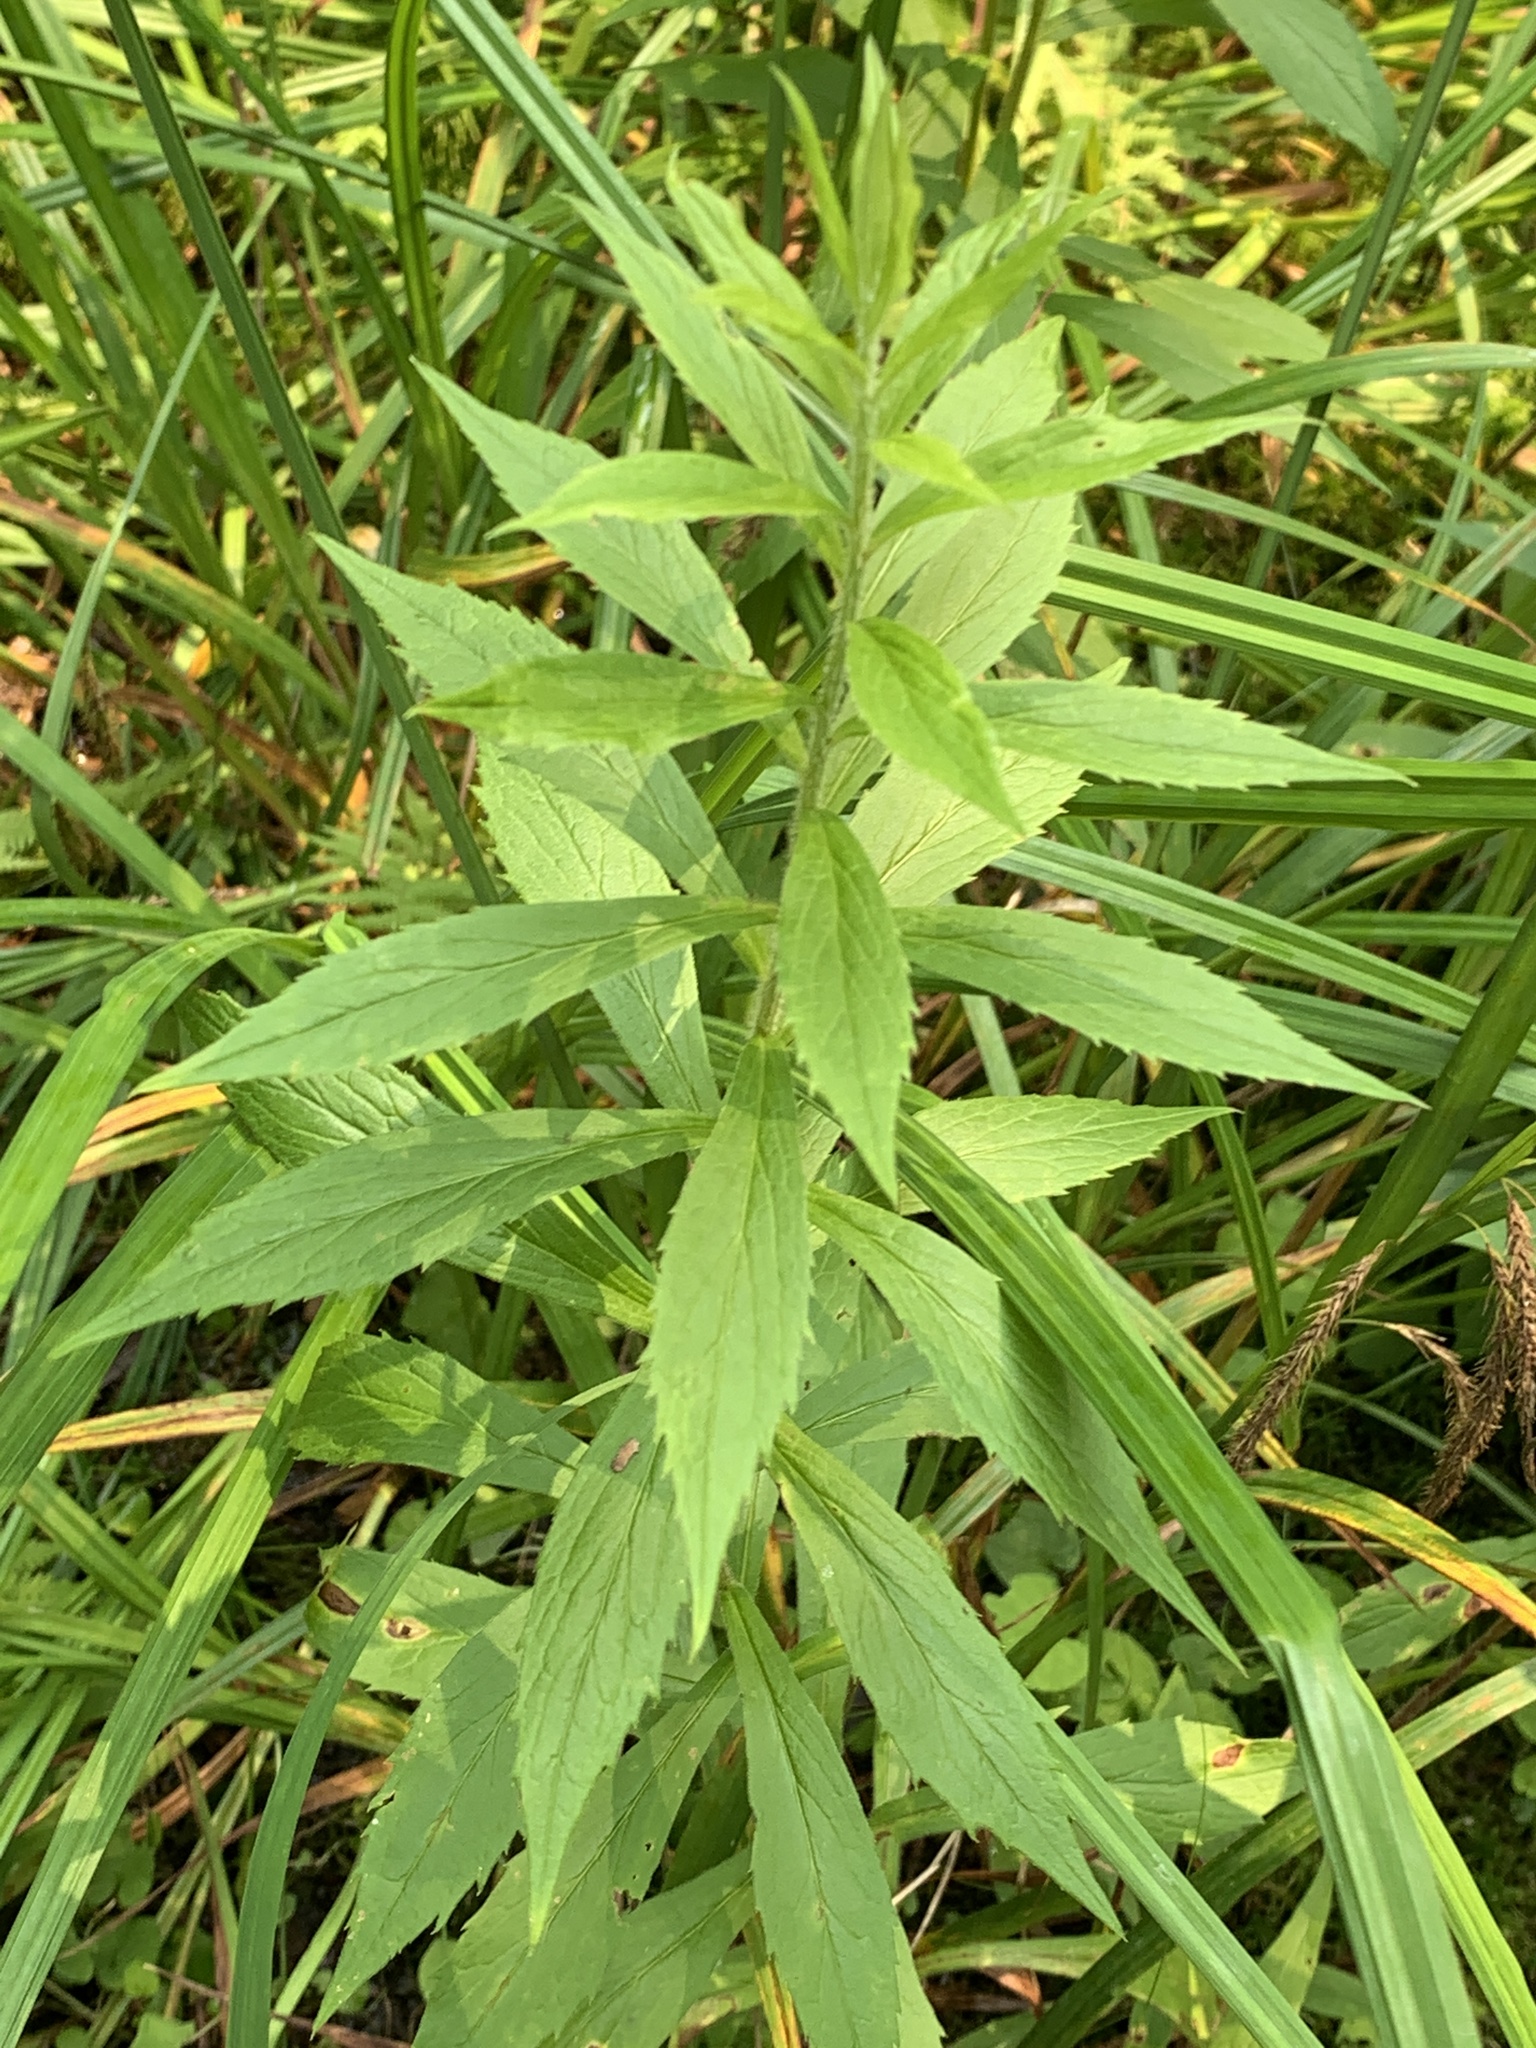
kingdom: Plantae
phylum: Tracheophyta
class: Magnoliopsida
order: Asterales
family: Asteraceae
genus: Solidago
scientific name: Solidago rugosa
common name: Rough-stemmed goldenrod
